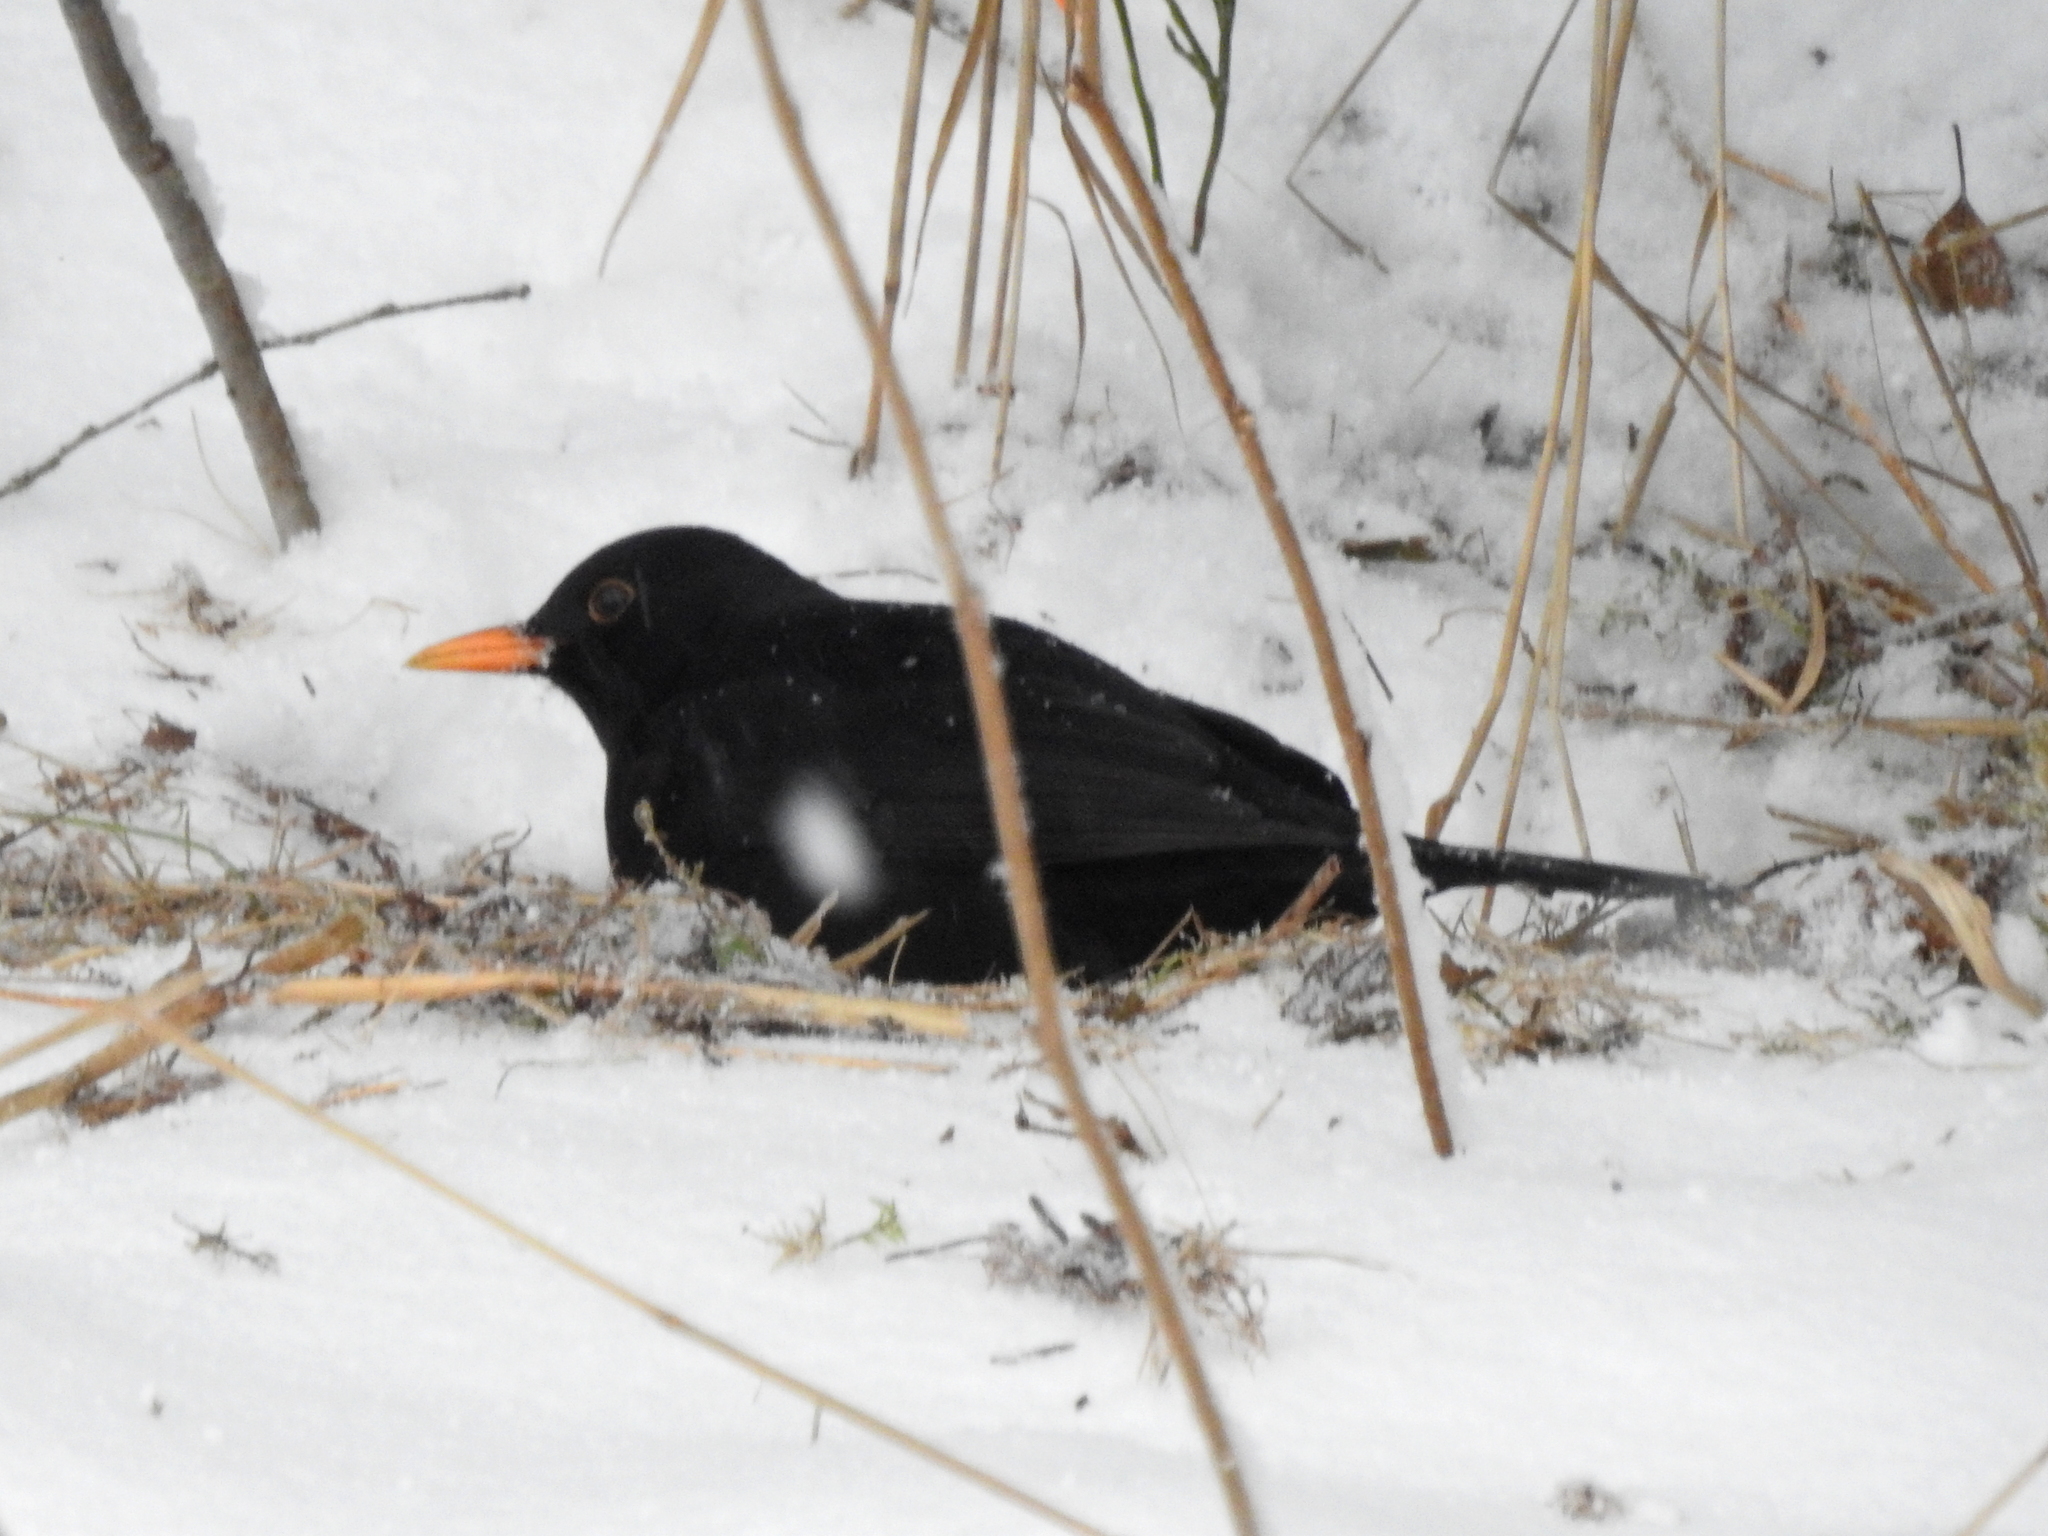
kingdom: Animalia
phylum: Chordata
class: Aves
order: Passeriformes
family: Turdidae
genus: Turdus
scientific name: Turdus merula
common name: Common blackbird
